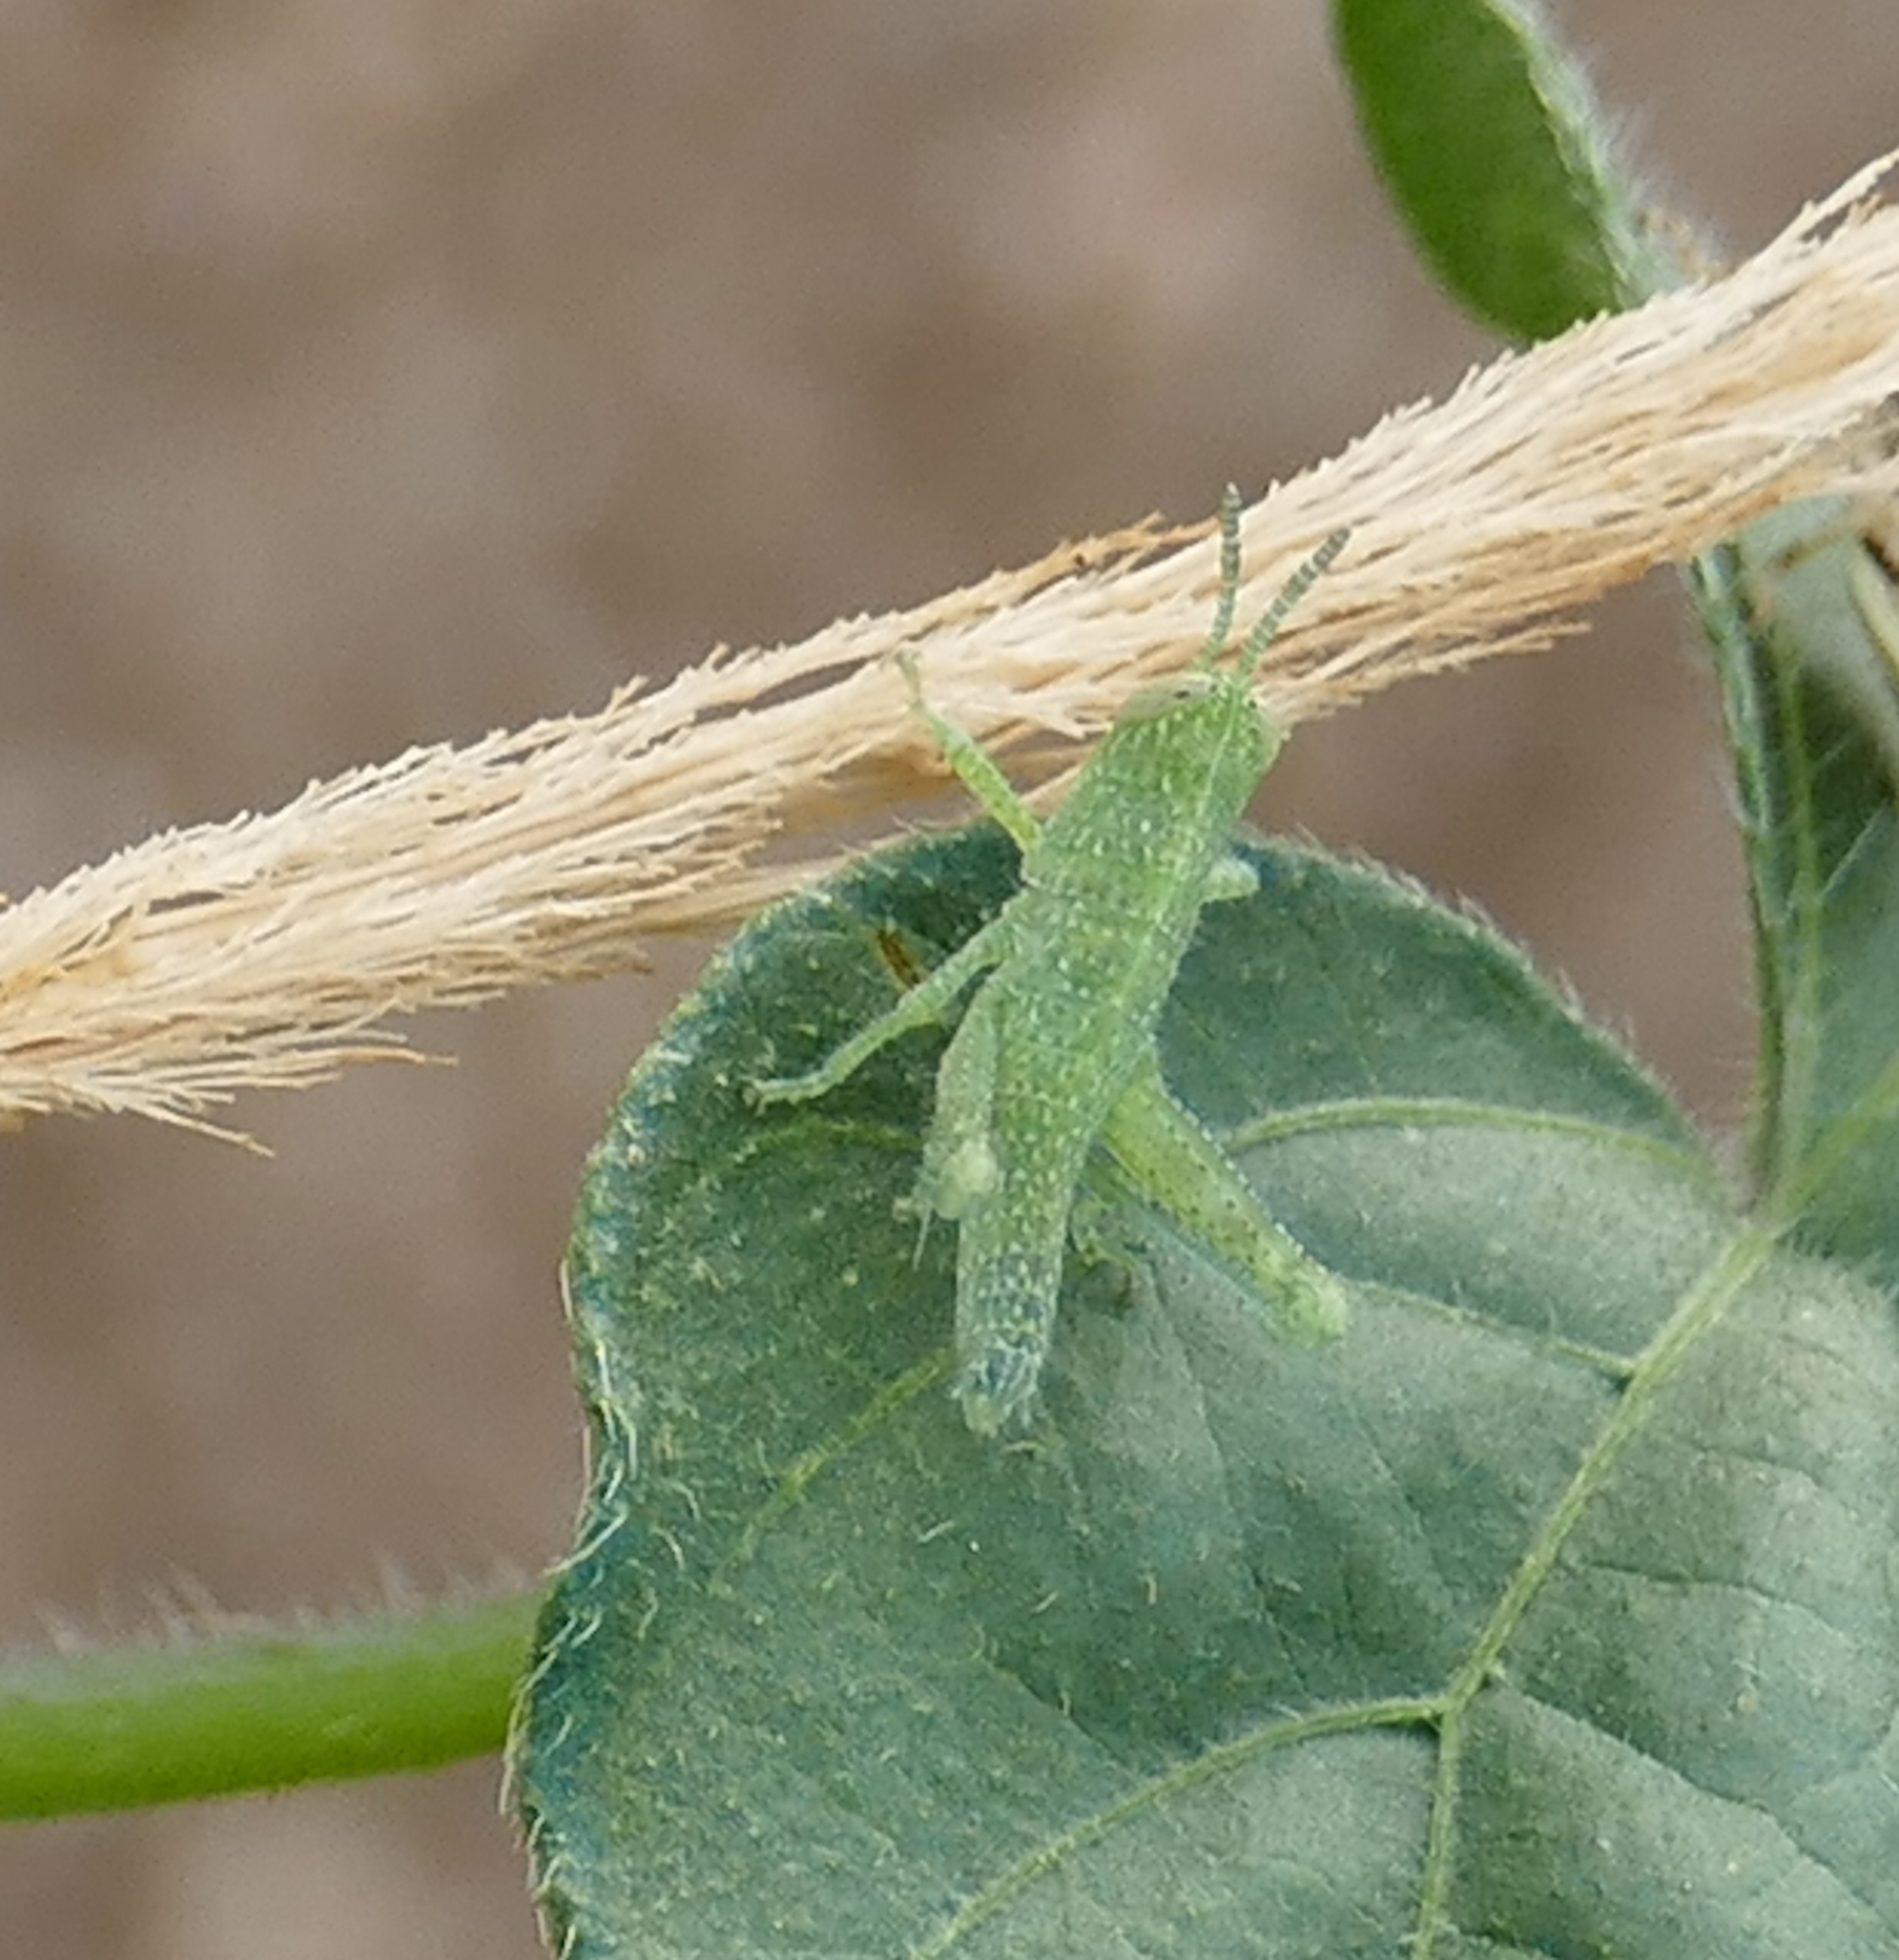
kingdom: Animalia
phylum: Arthropoda
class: Insecta
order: Orthoptera
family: Acrididae
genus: Schistocerca
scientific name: Schistocerca nitens
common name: Vagrant grasshopper
